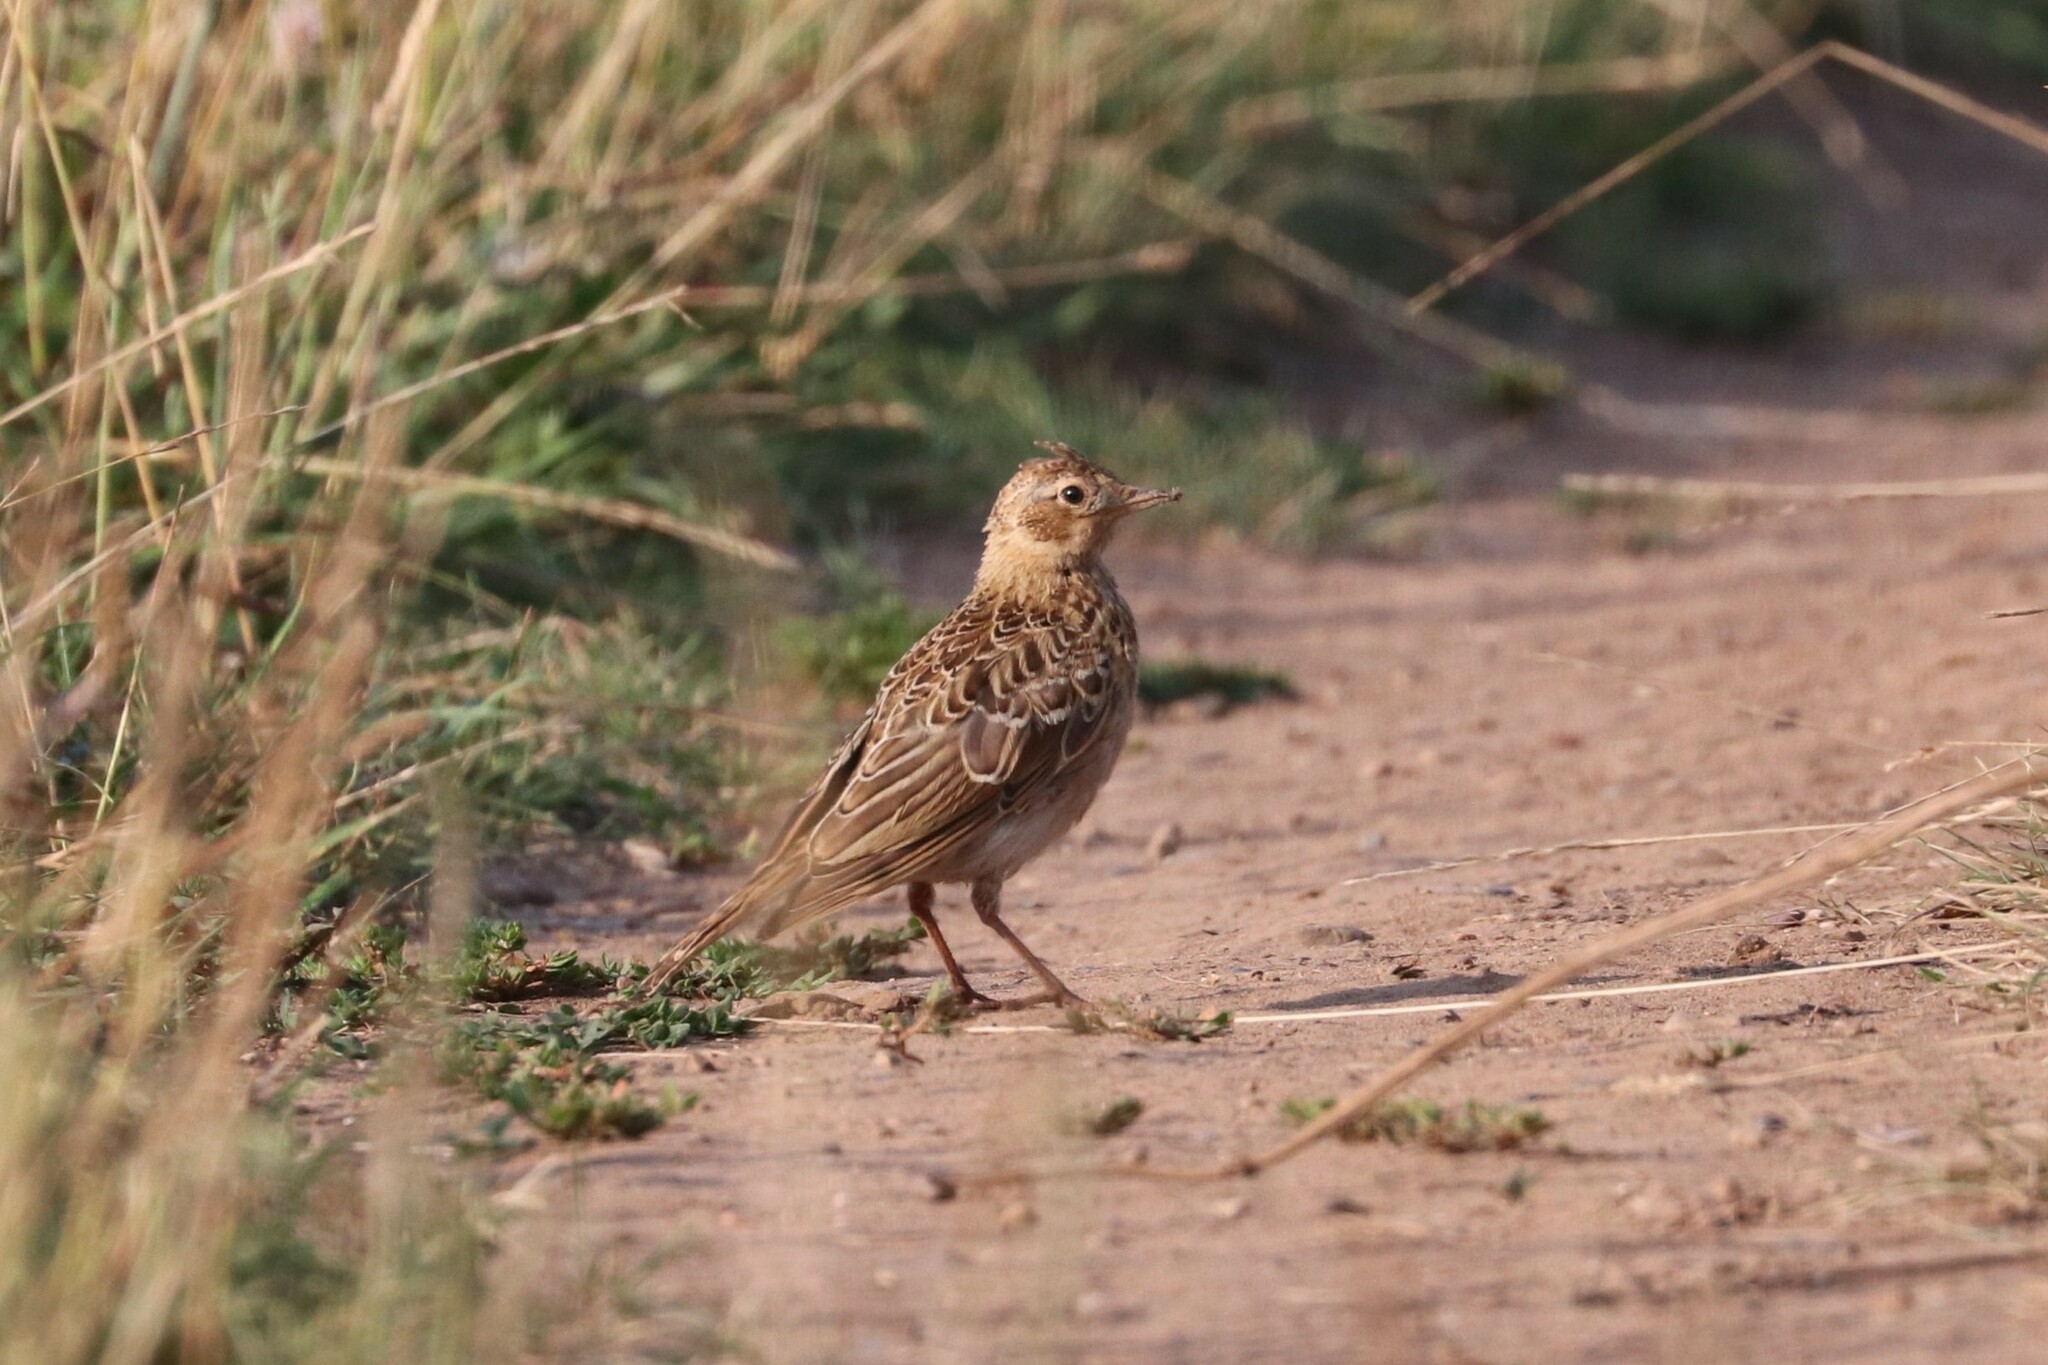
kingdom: Animalia
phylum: Chordata
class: Aves
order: Passeriformes
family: Alaudidae
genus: Alauda
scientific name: Alauda arvensis
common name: Eurasian skylark
